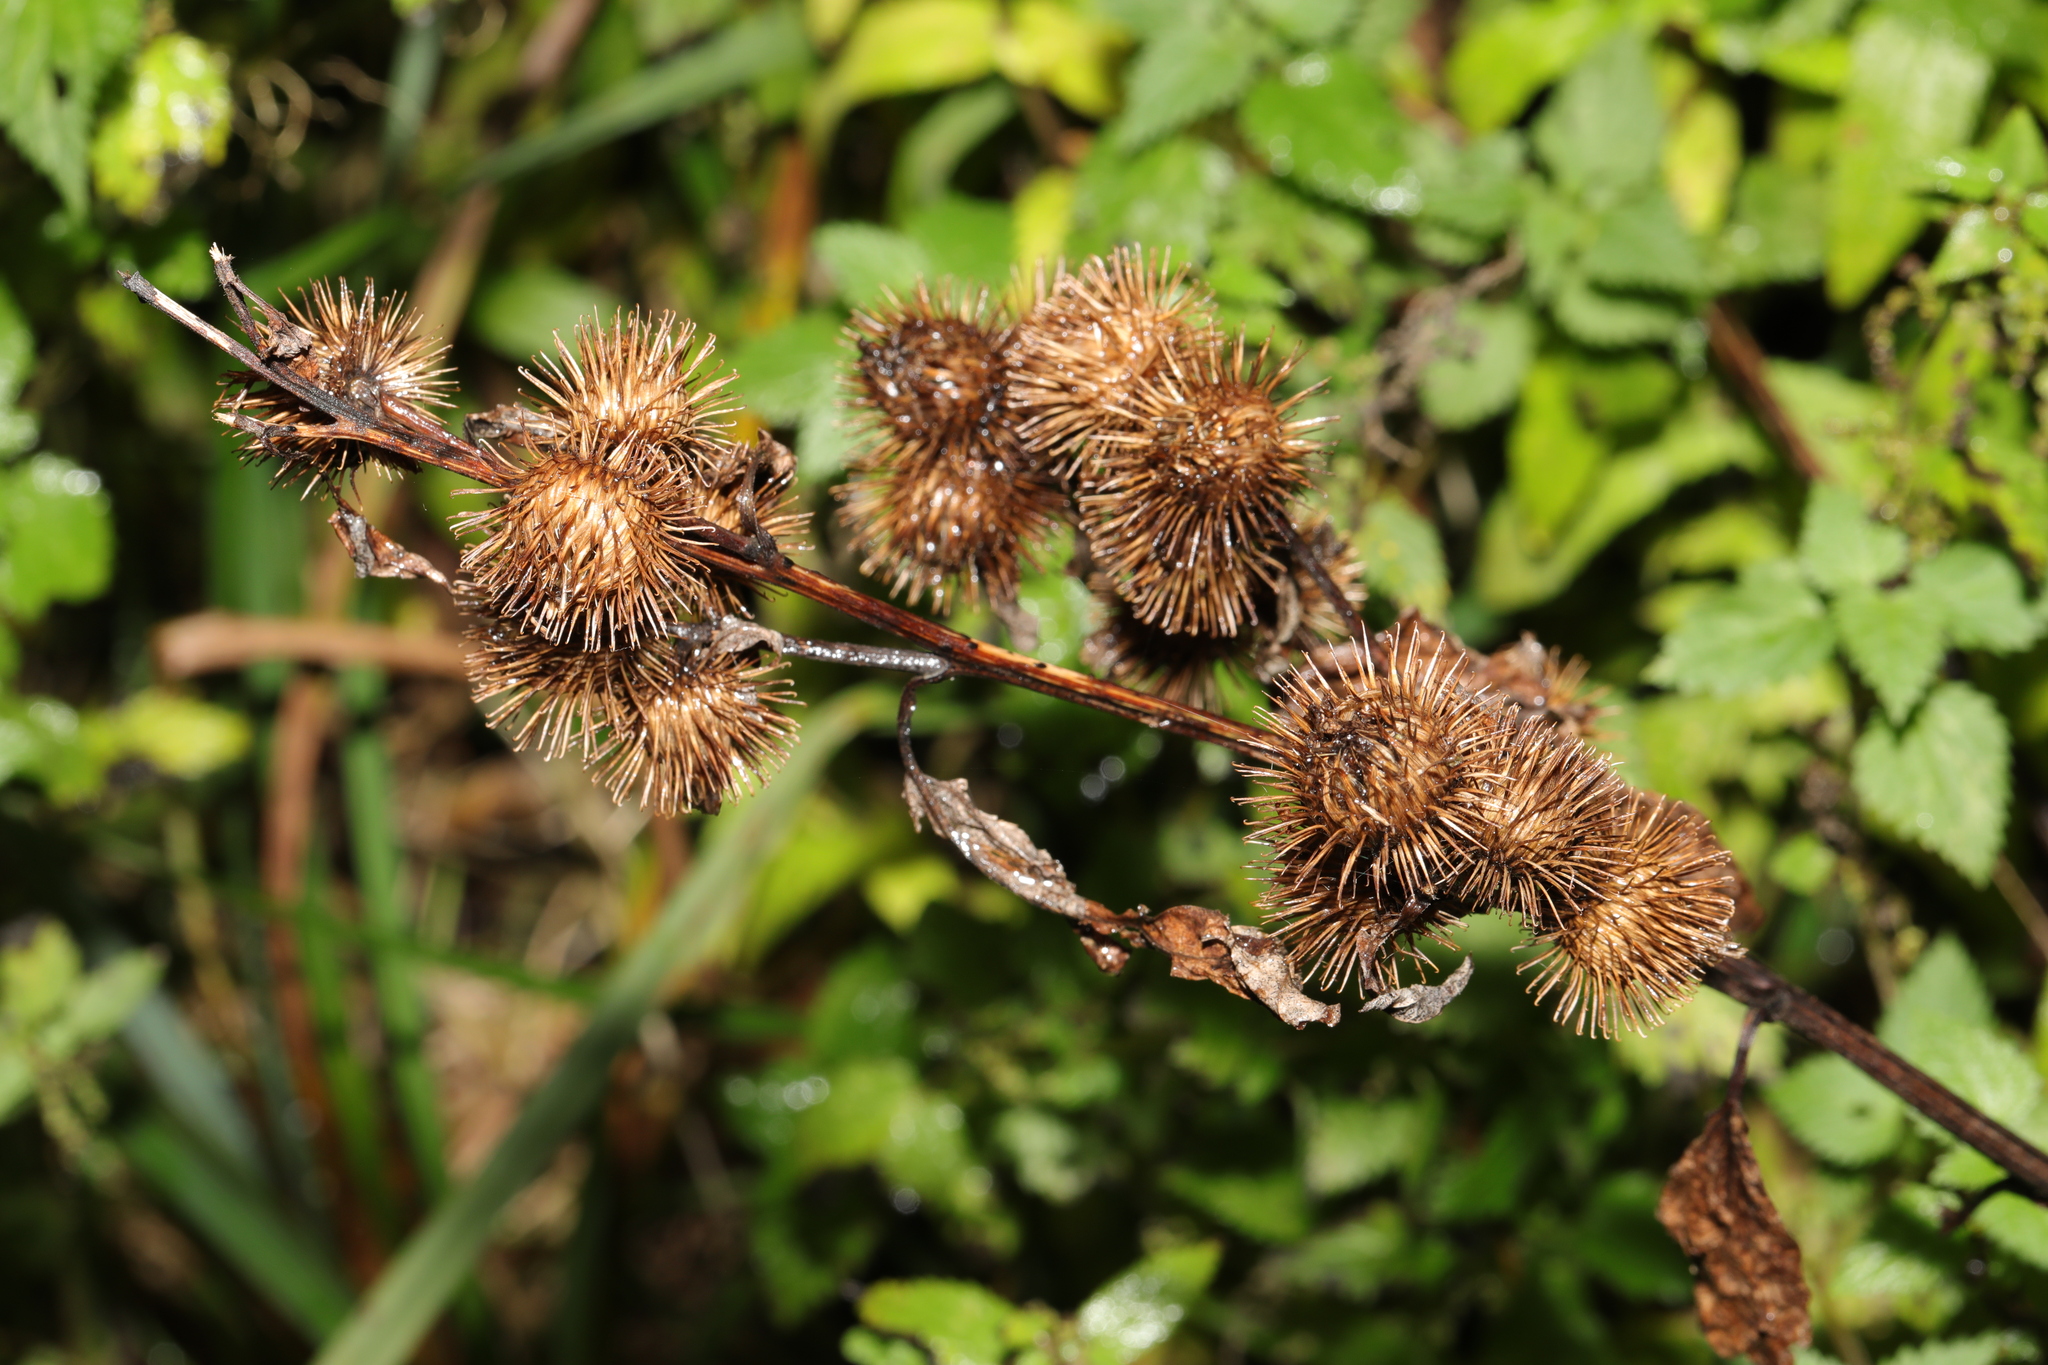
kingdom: Plantae
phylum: Tracheophyta
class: Magnoliopsida
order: Asterales
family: Asteraceae
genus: Arctium
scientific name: Arctium minus
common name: Lesser burdock
